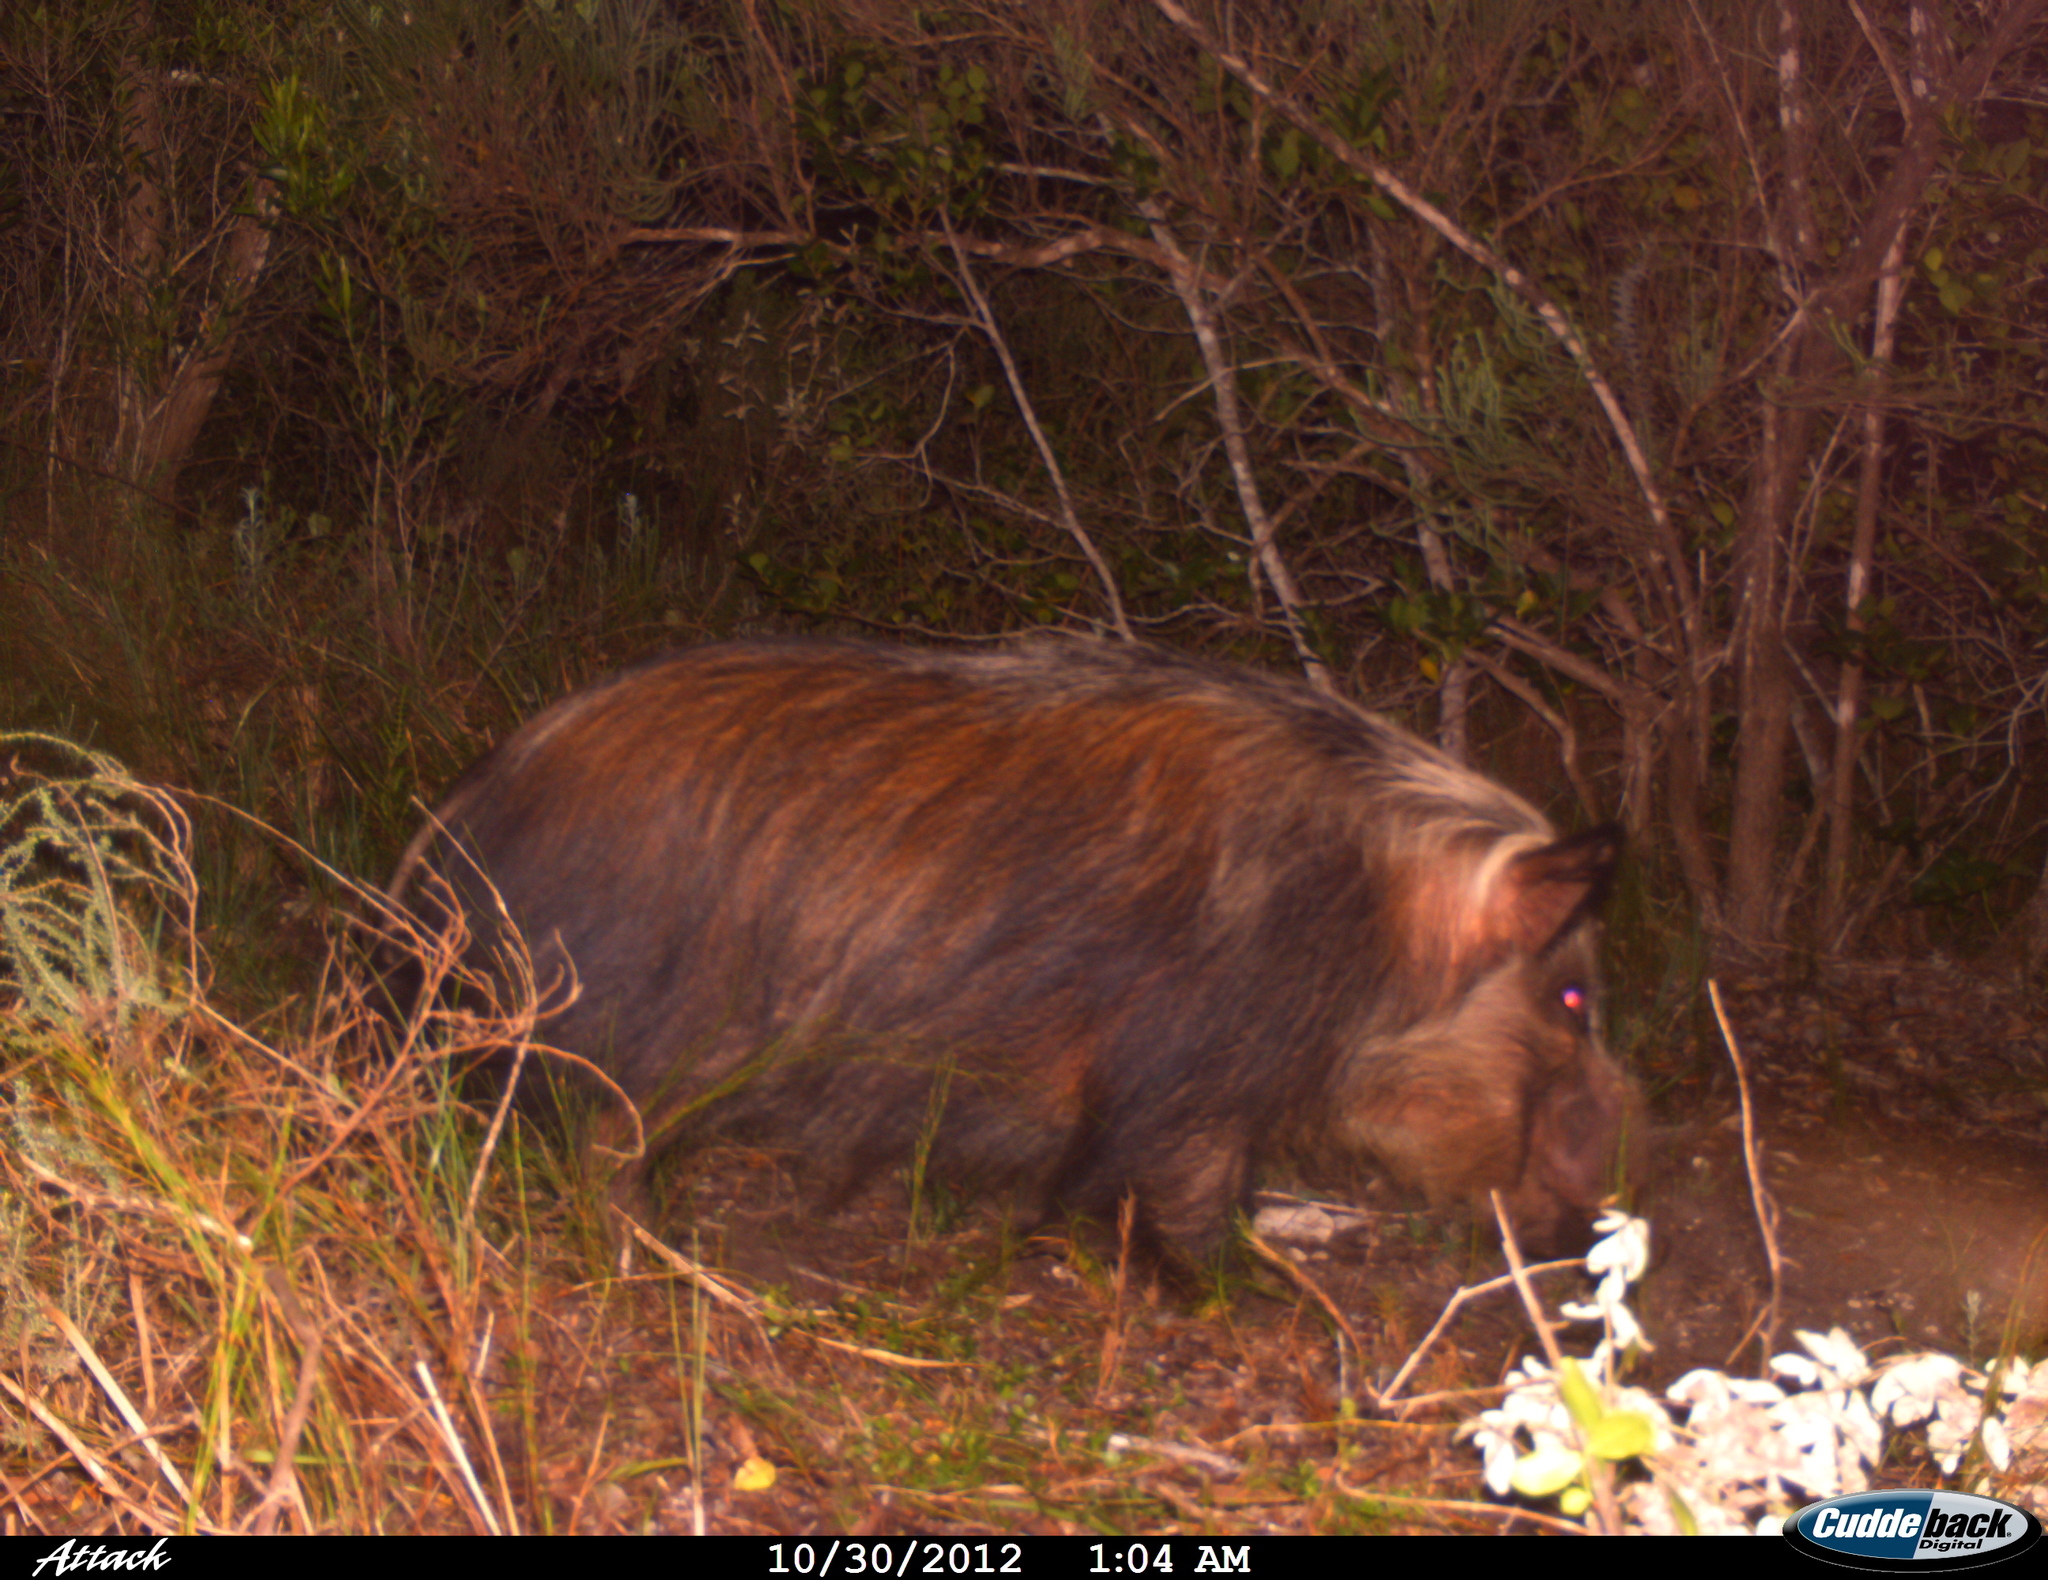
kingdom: Animalia
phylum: Chordata
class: Mammalia
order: Artiodactyla
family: Suidae
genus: Potamochoerus
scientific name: Potamochoerus larvatus
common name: Bushpig
